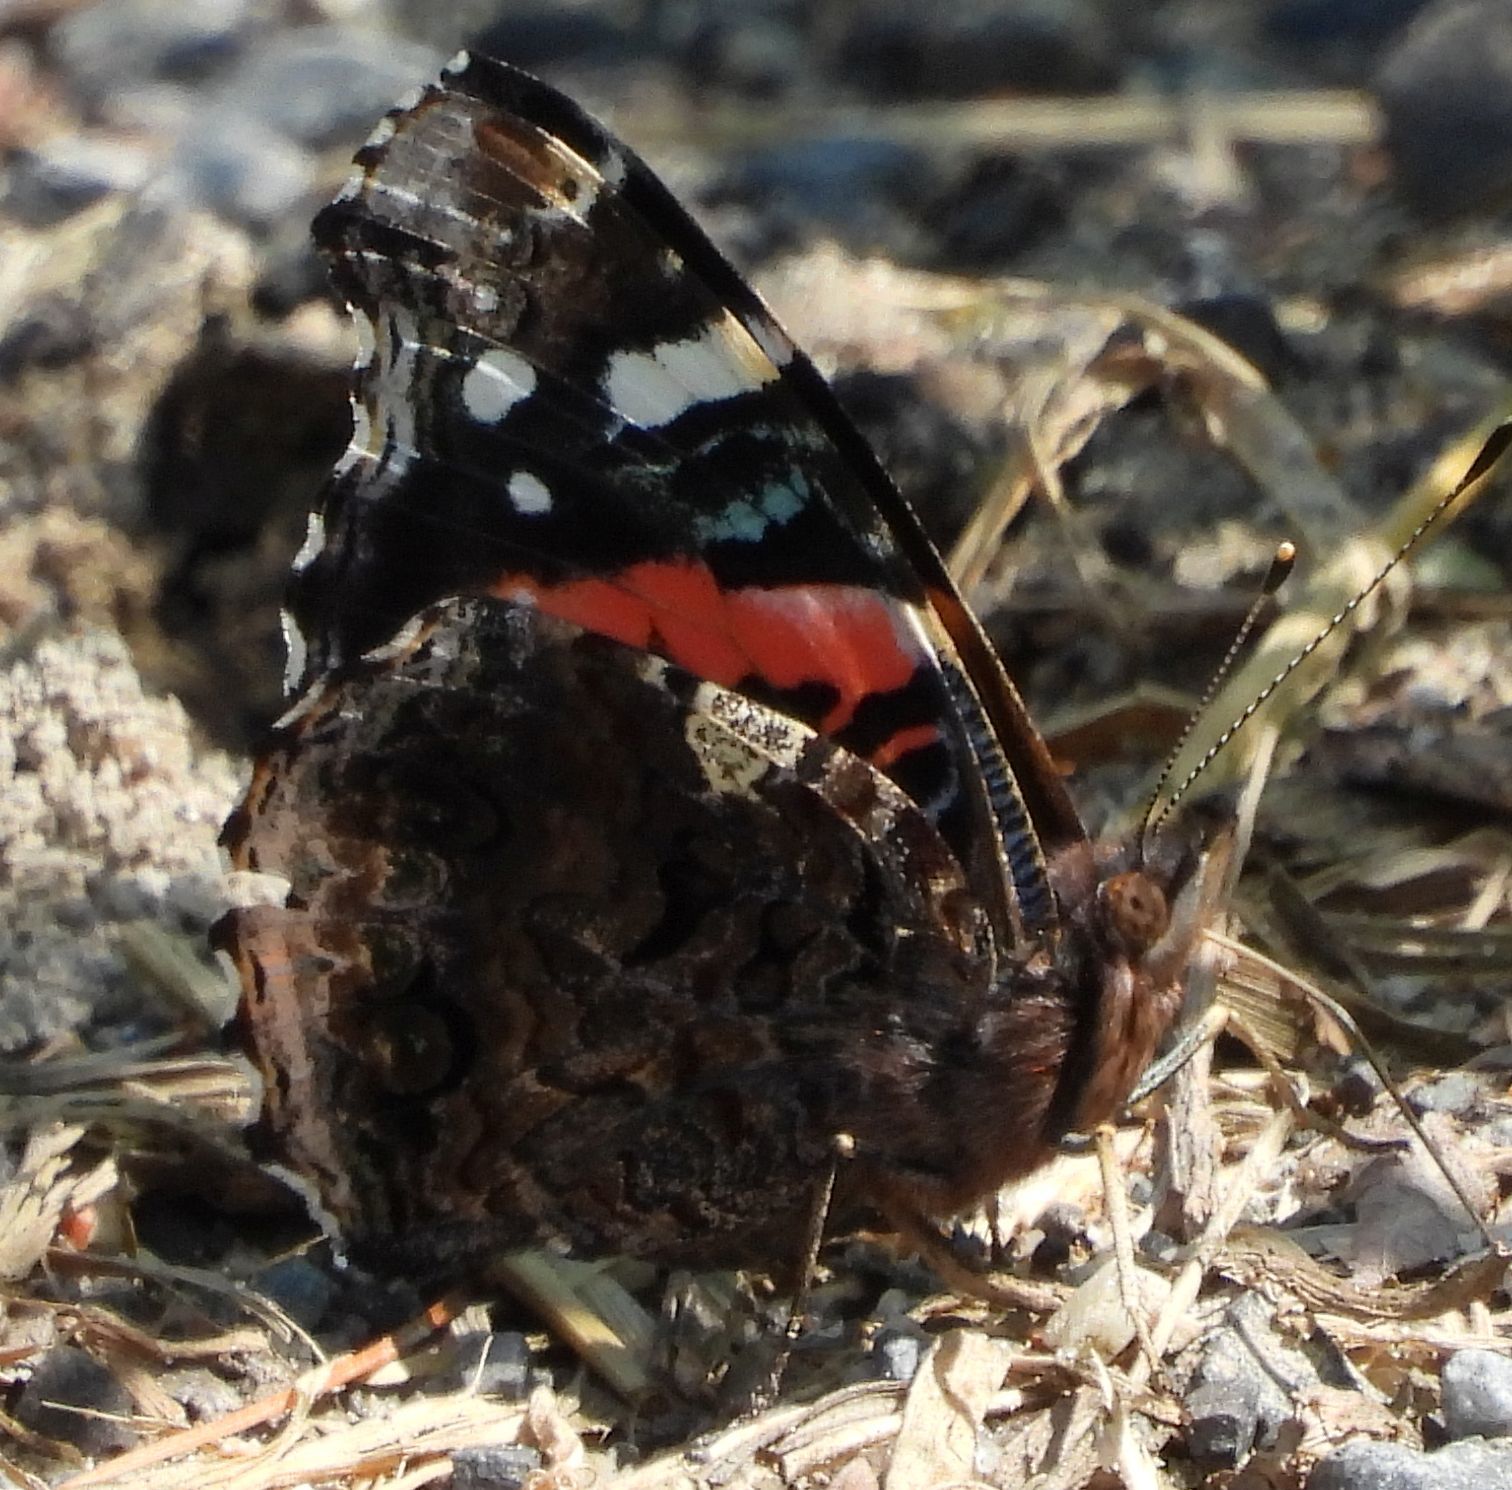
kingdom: Animalia
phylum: Arthropoda
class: Insecta
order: Lepidoptera
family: Nymphalidae
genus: Vanessa
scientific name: Vanessa atalanta
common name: Red admiral
